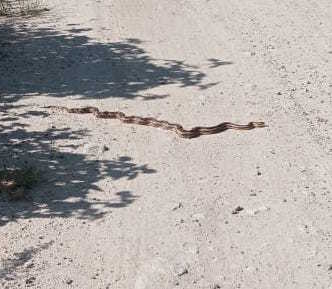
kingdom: Animalia
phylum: Chordata
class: Squamata
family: Colubridae
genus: Pituophis
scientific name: Pituophis lineaticollis
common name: Cincuate bull snake
